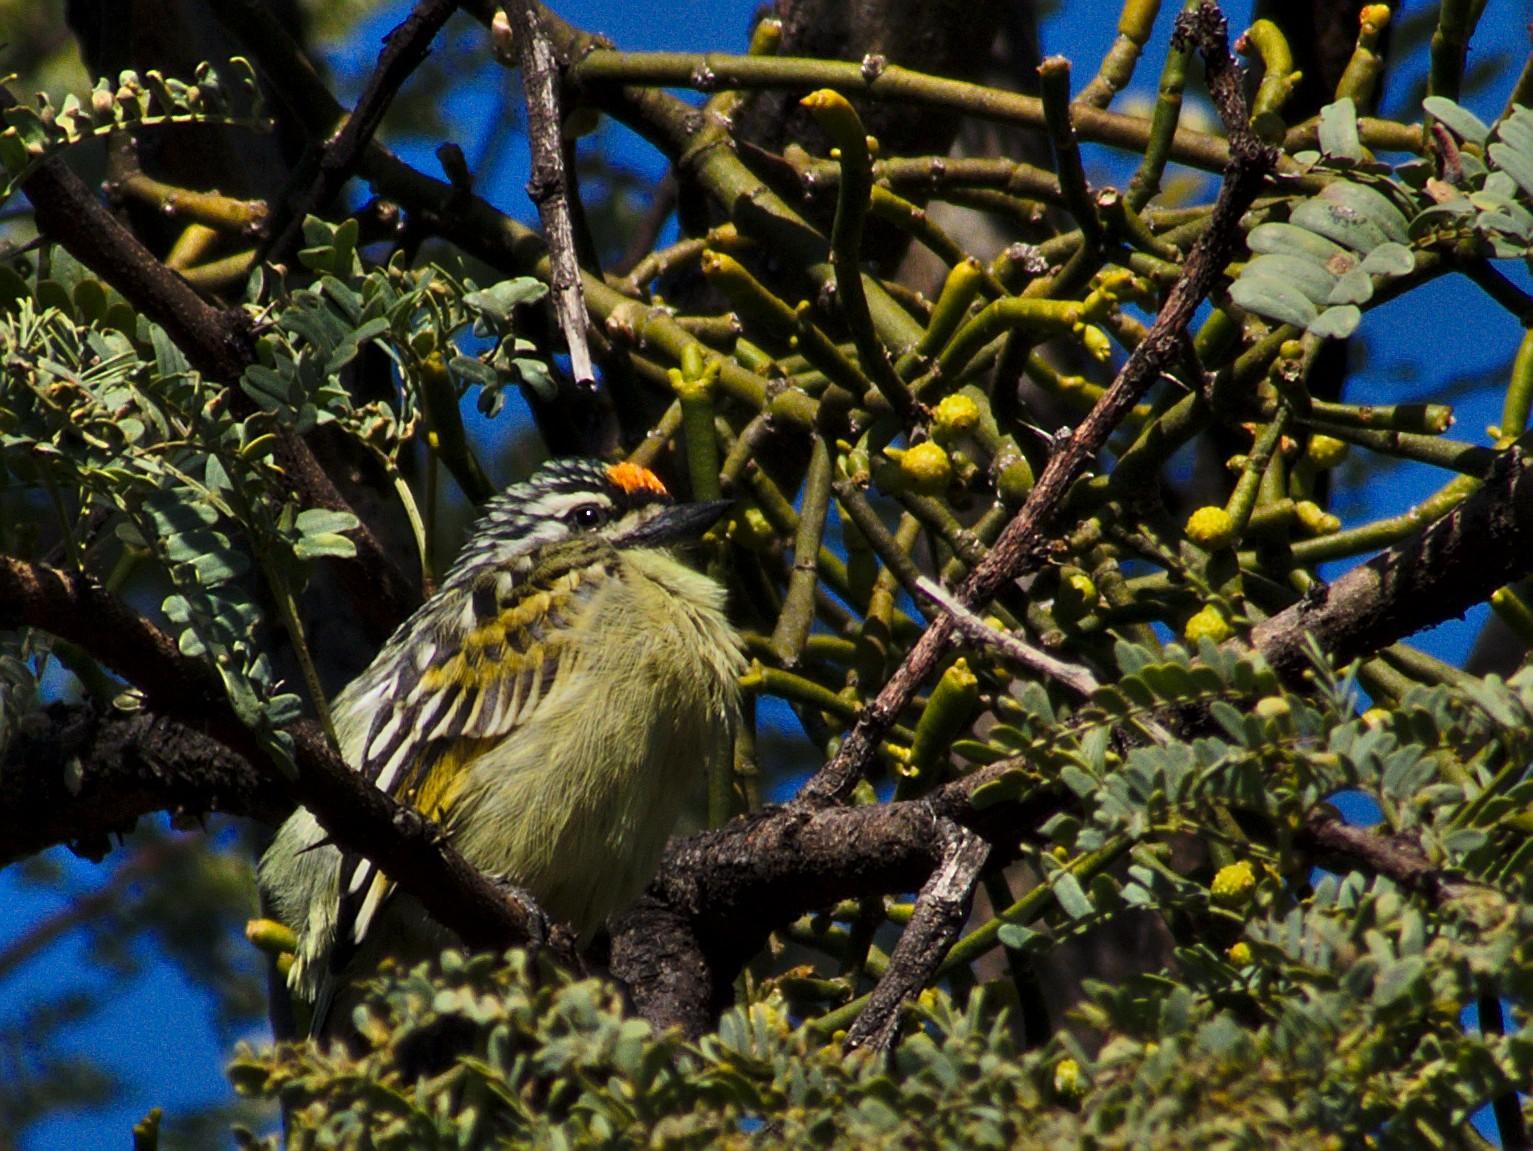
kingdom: Animalia
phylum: Chordata
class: Aves
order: Piciformes
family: Lybiidae
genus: Pogoniulus
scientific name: Pogoniulus chrysoconus
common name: Yellow-fronted tinkerbird
